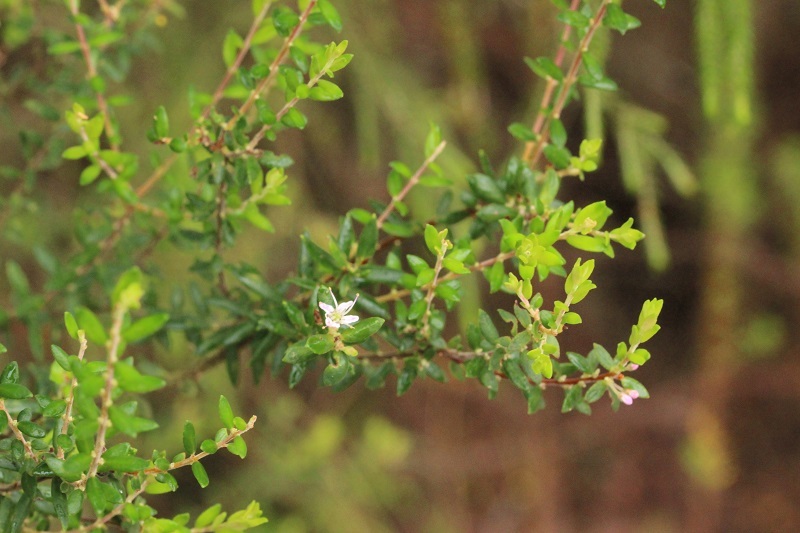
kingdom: Plantae
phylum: Tracheophyta
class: Magnoliopsida
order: Sapindales
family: Rutaceae
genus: Agathosma
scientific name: Agathosma ovata
